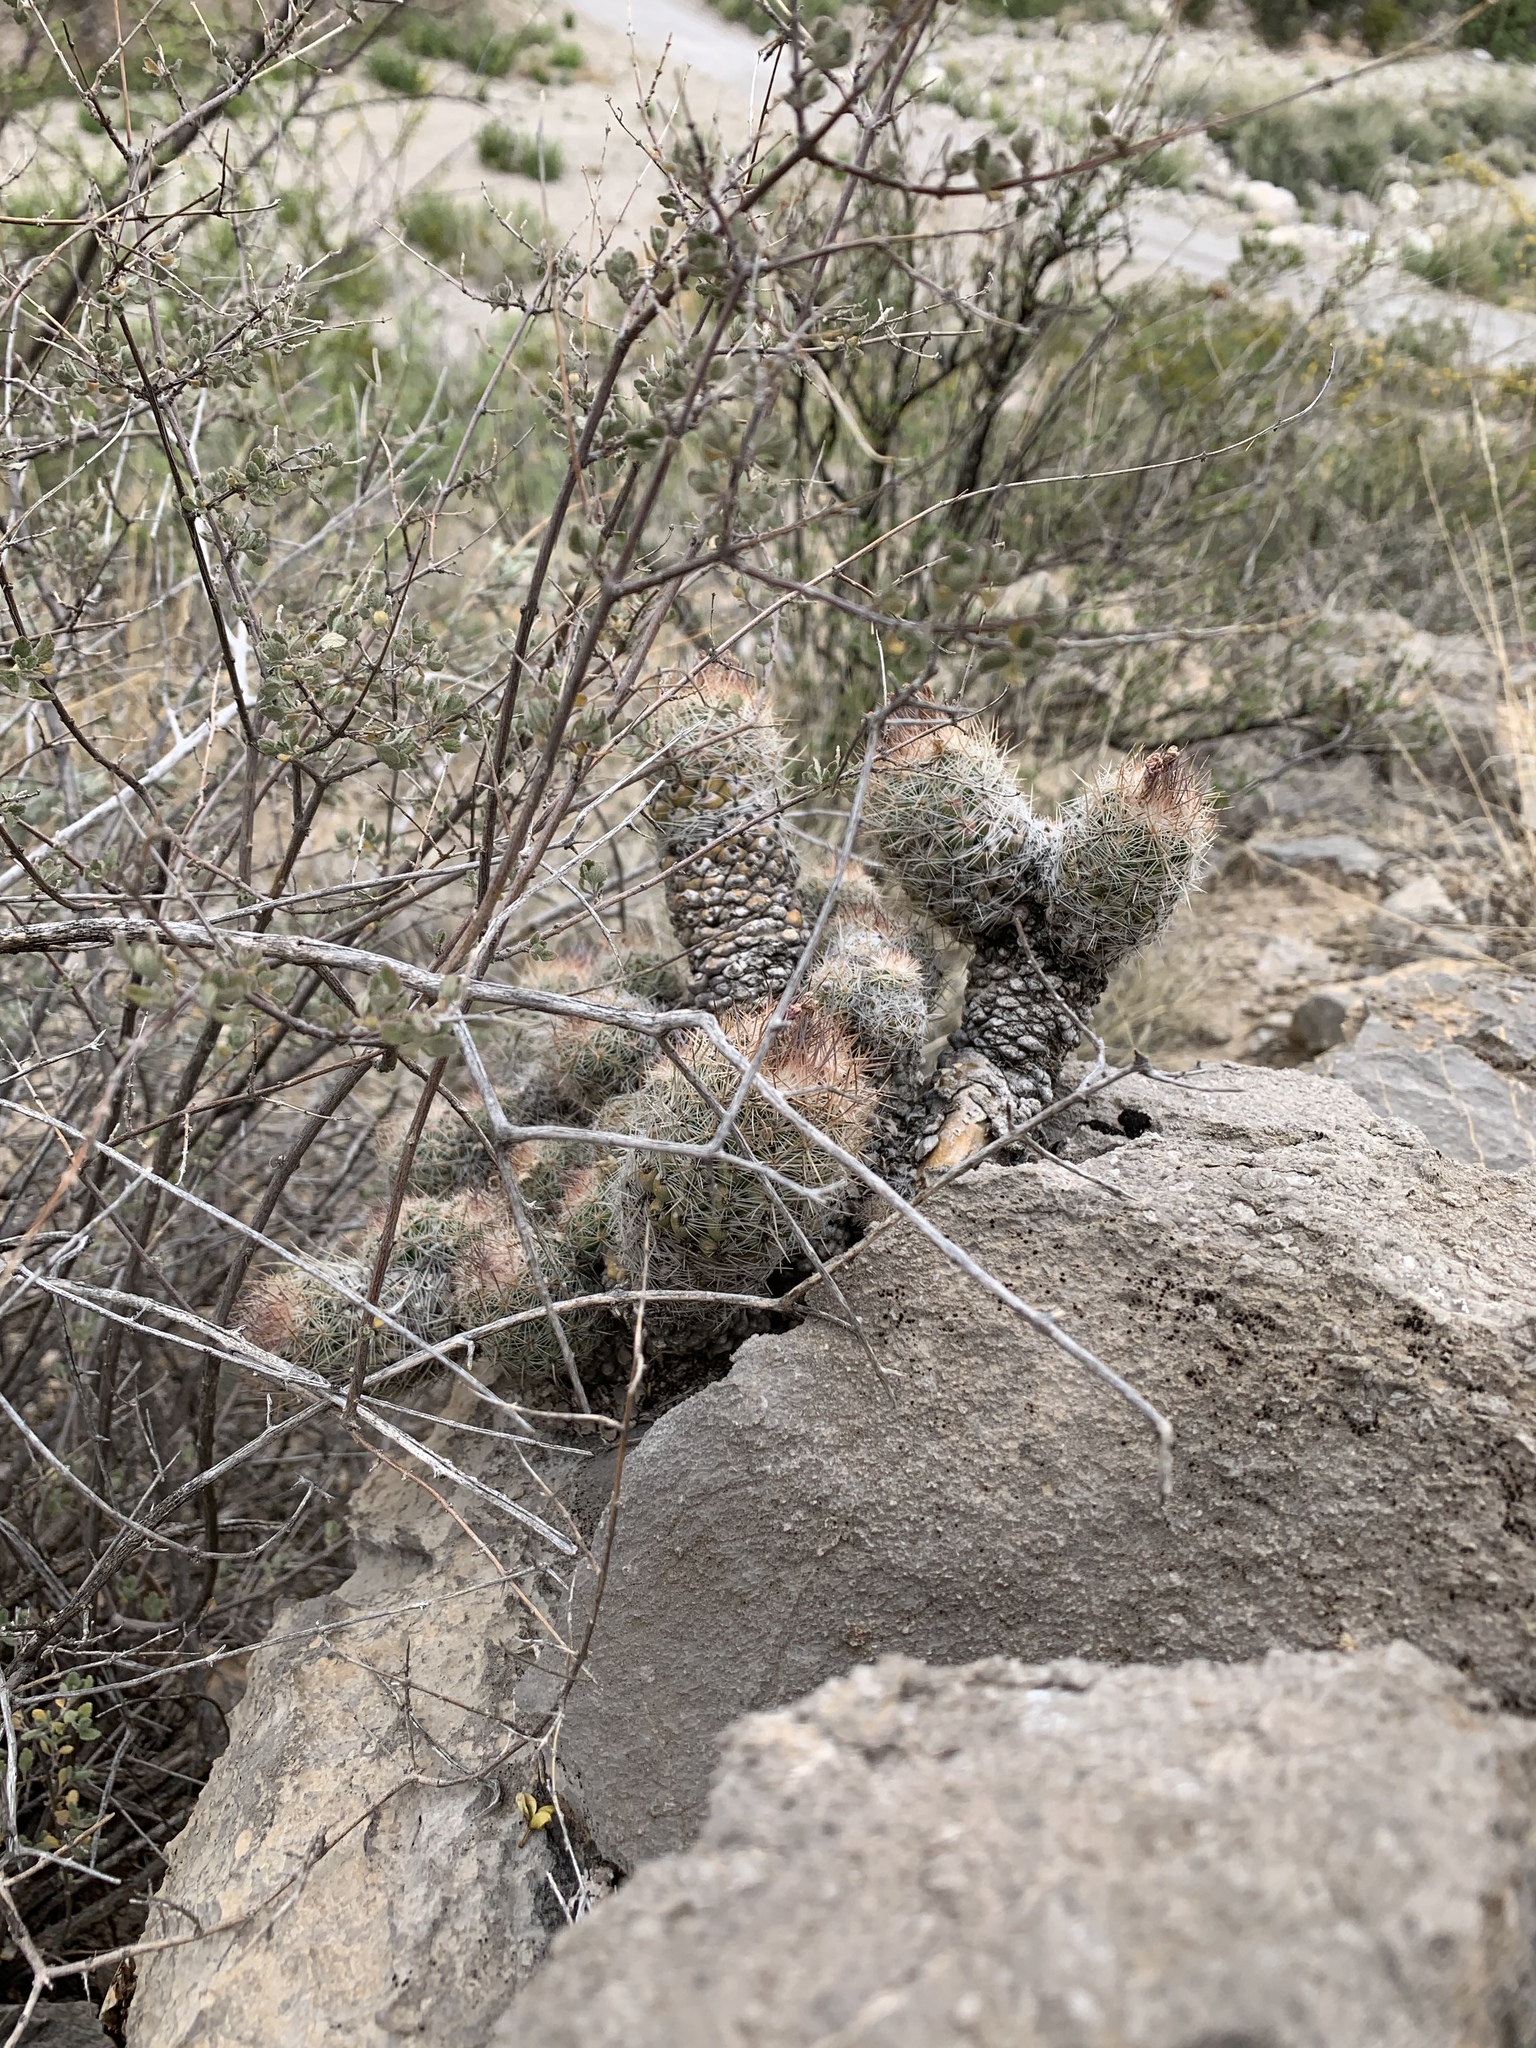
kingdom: Plantae
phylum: Tracheophyta
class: Magnoliopsida
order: Caryophyllales
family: Cactaceae
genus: Pelecyphora
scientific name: Pelecyphora tuberculosa
